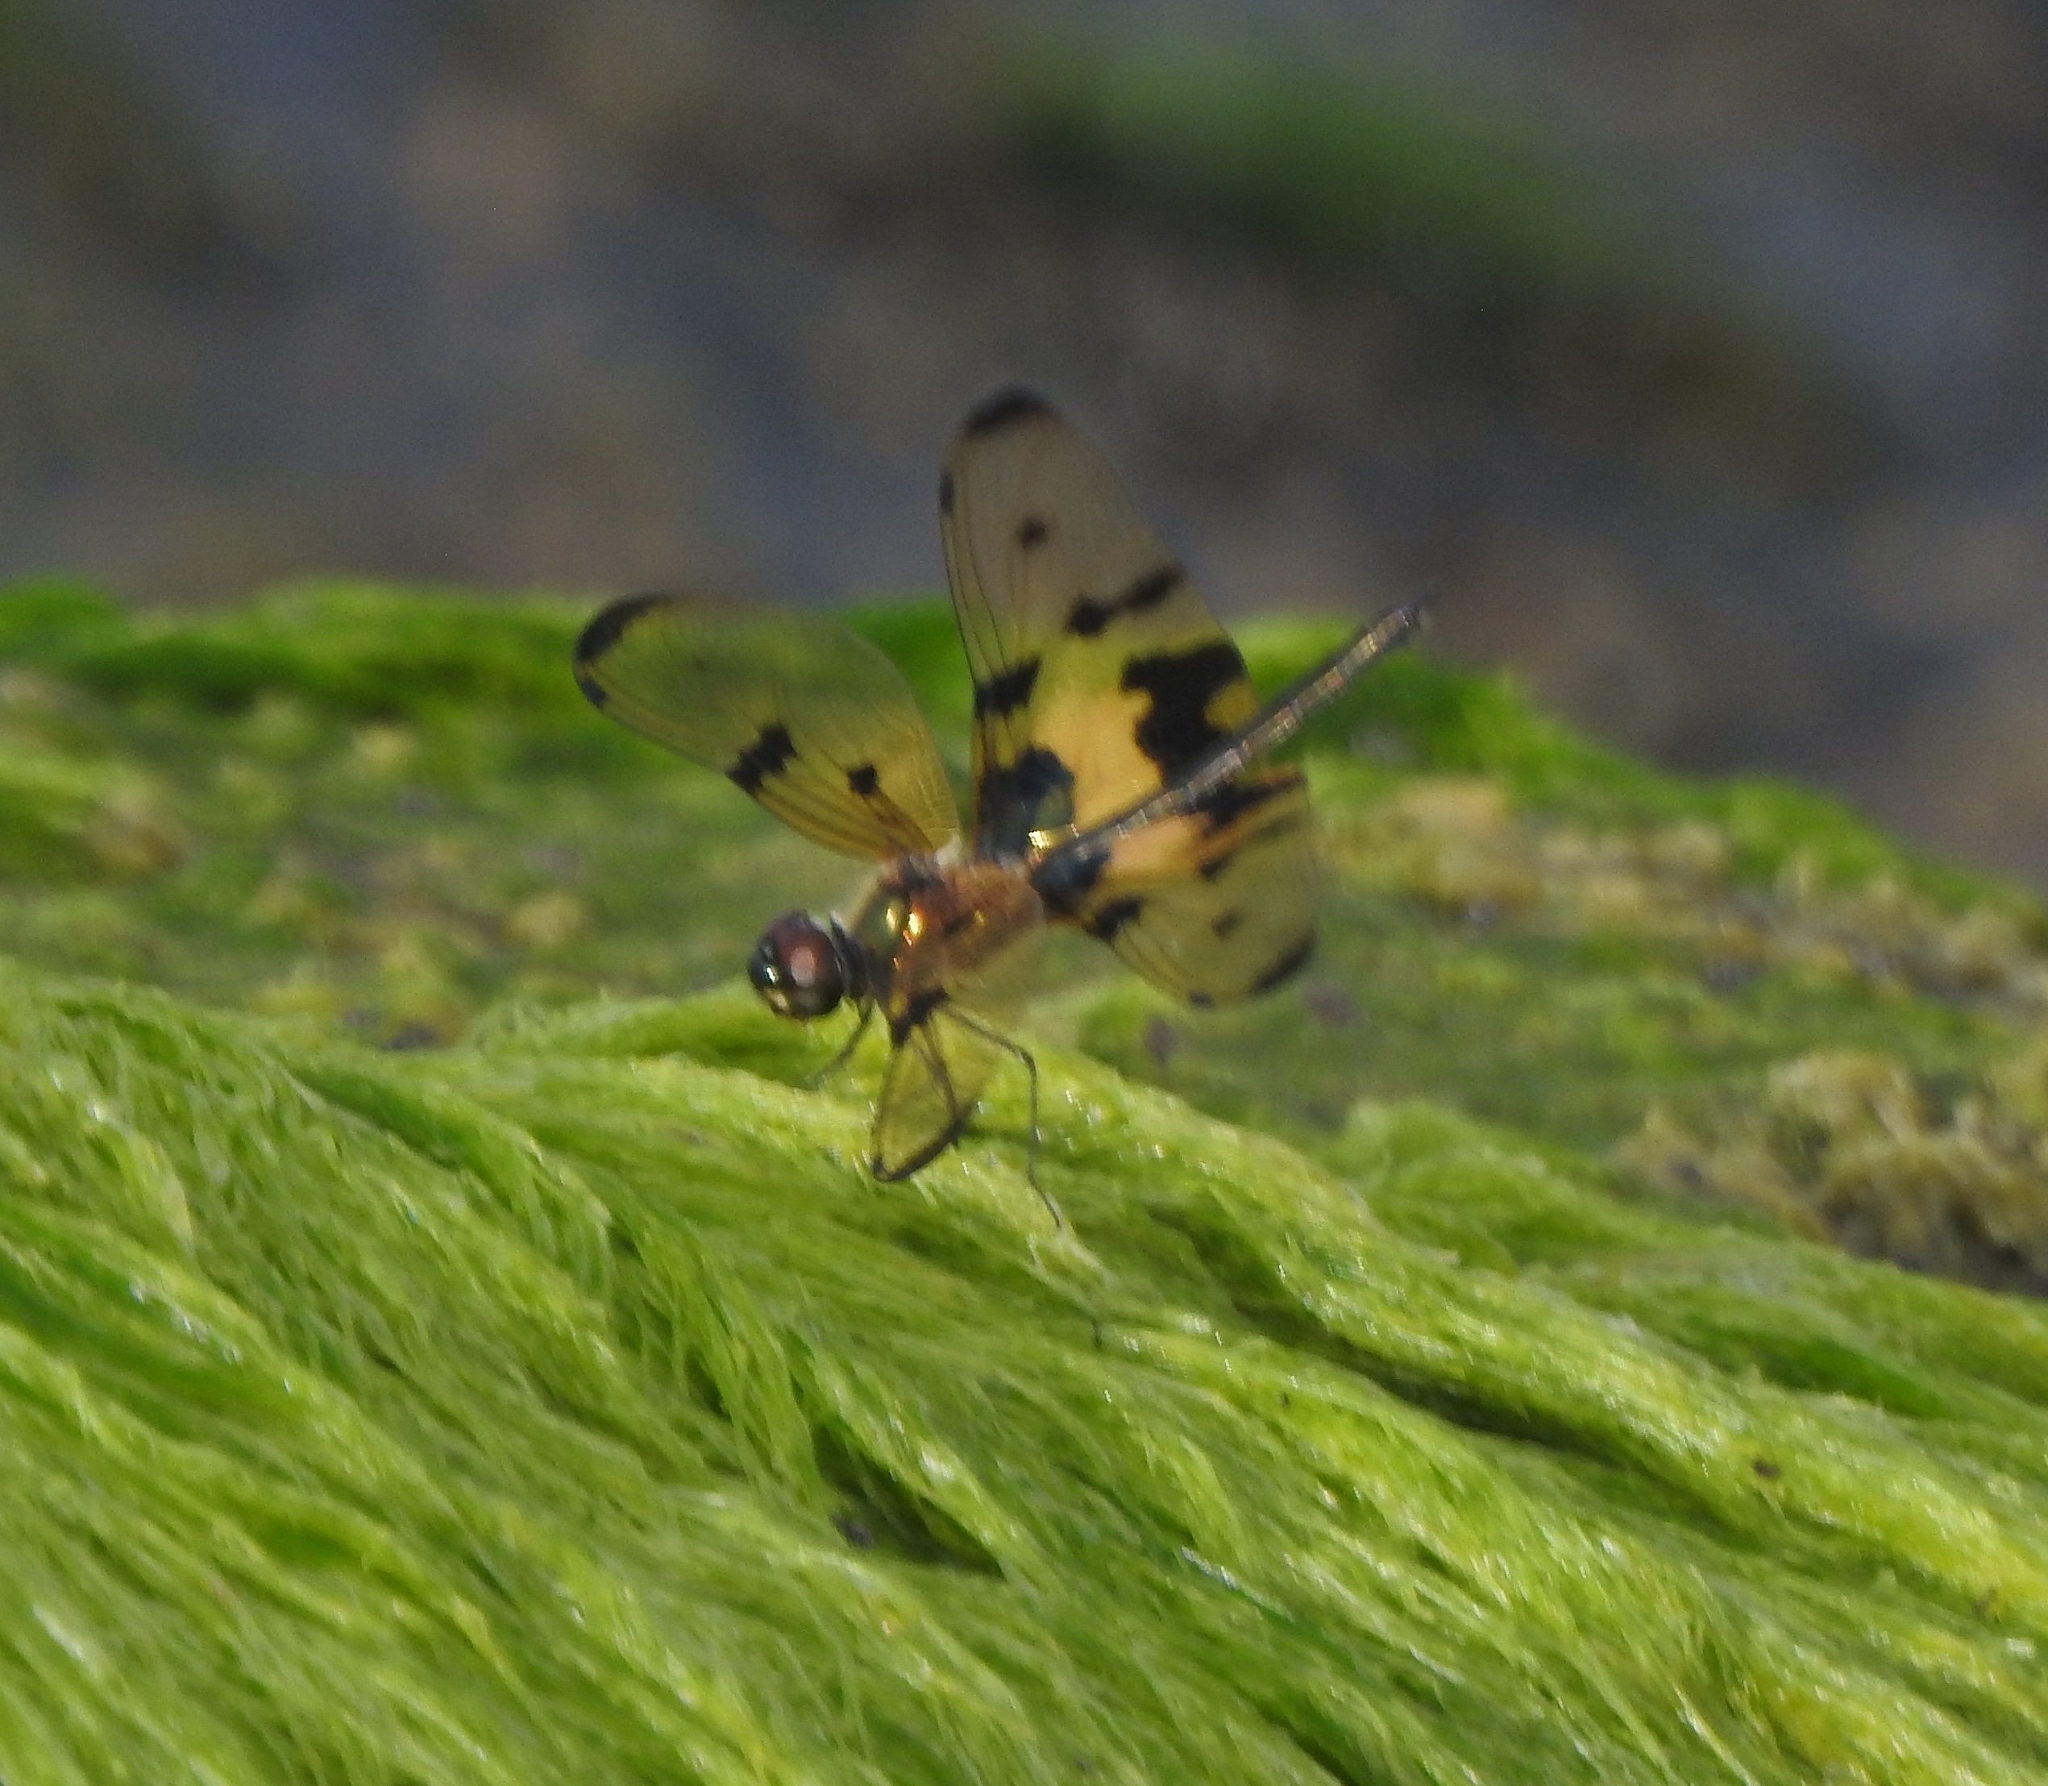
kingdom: Animalia
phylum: Arthropoda
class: Insecta
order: Odonata
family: Libellulidae
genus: Rhyothemis
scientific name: Rhyothemis variegata
